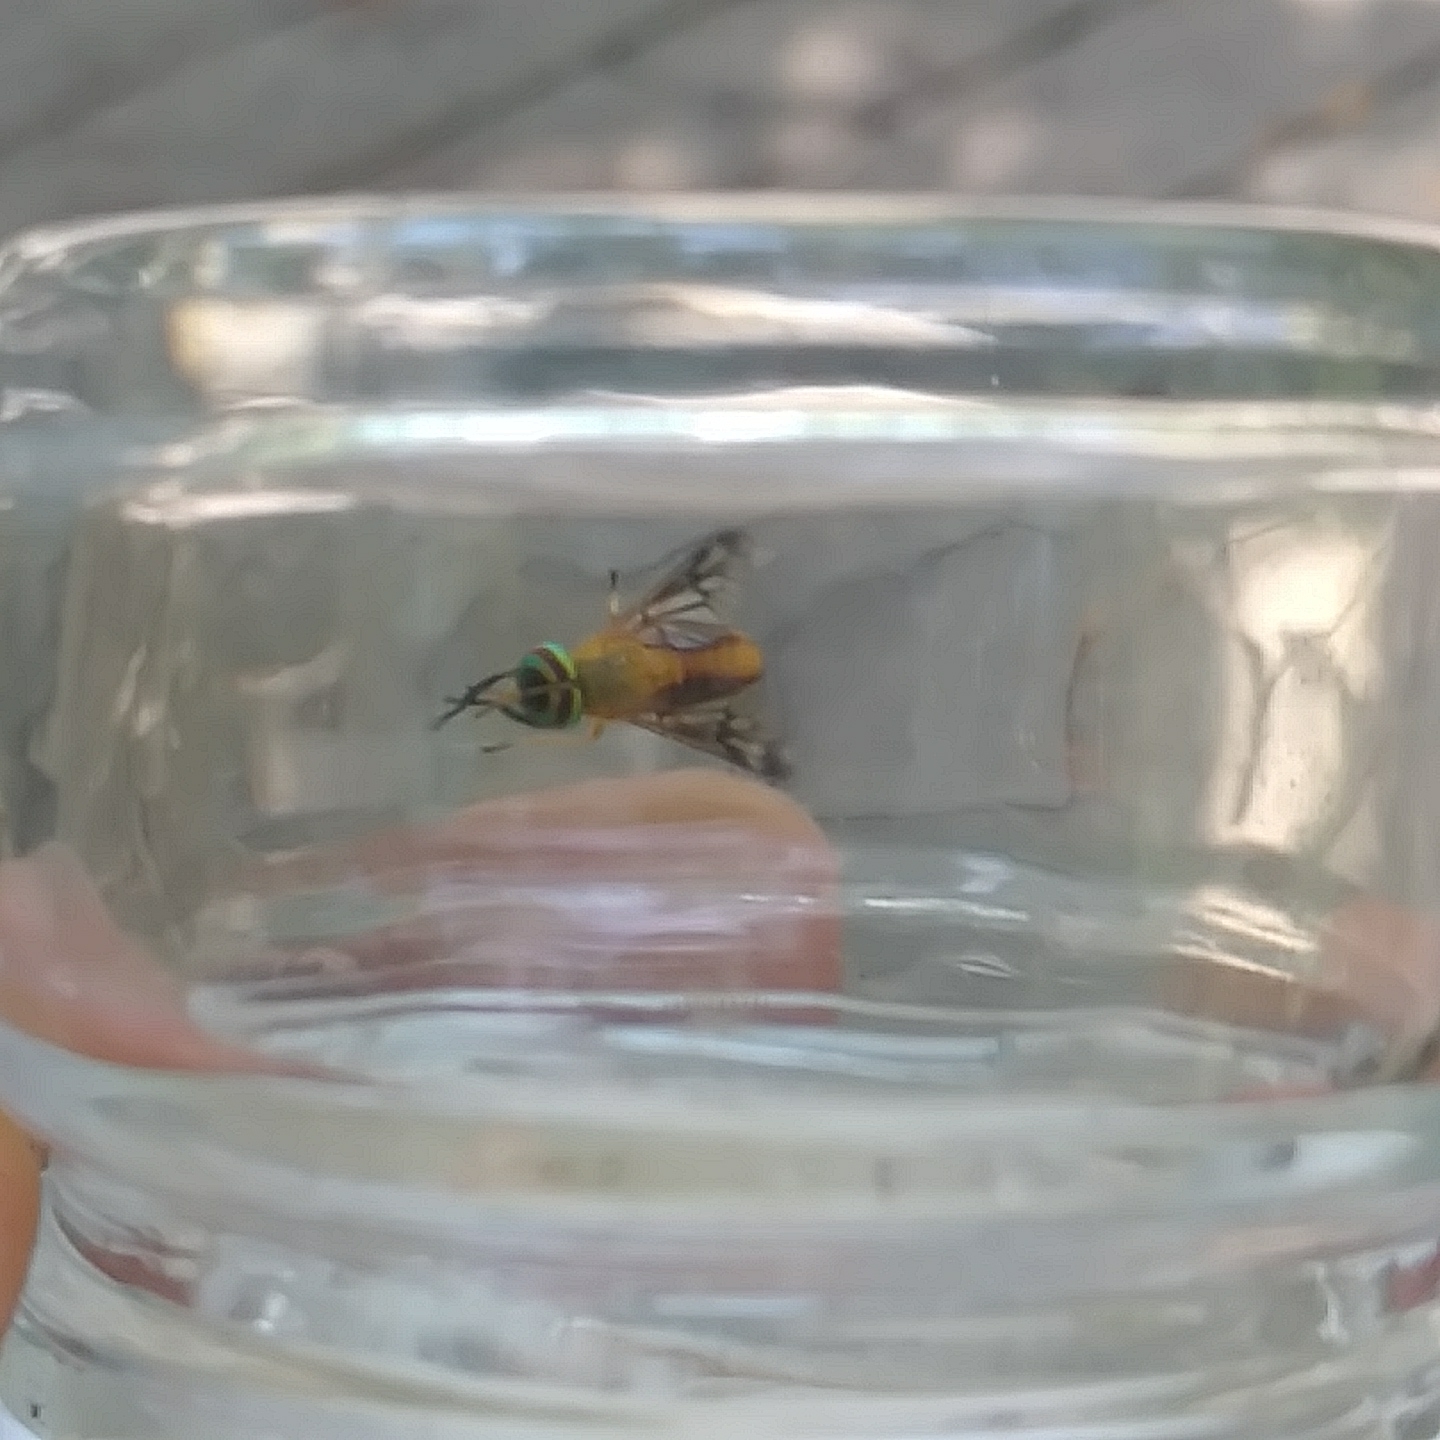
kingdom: Animalia
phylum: Arthropoda
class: Insecta
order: Diptera
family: Tabanidae
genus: Diachlorus
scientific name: Diachlorus ferrugatus
